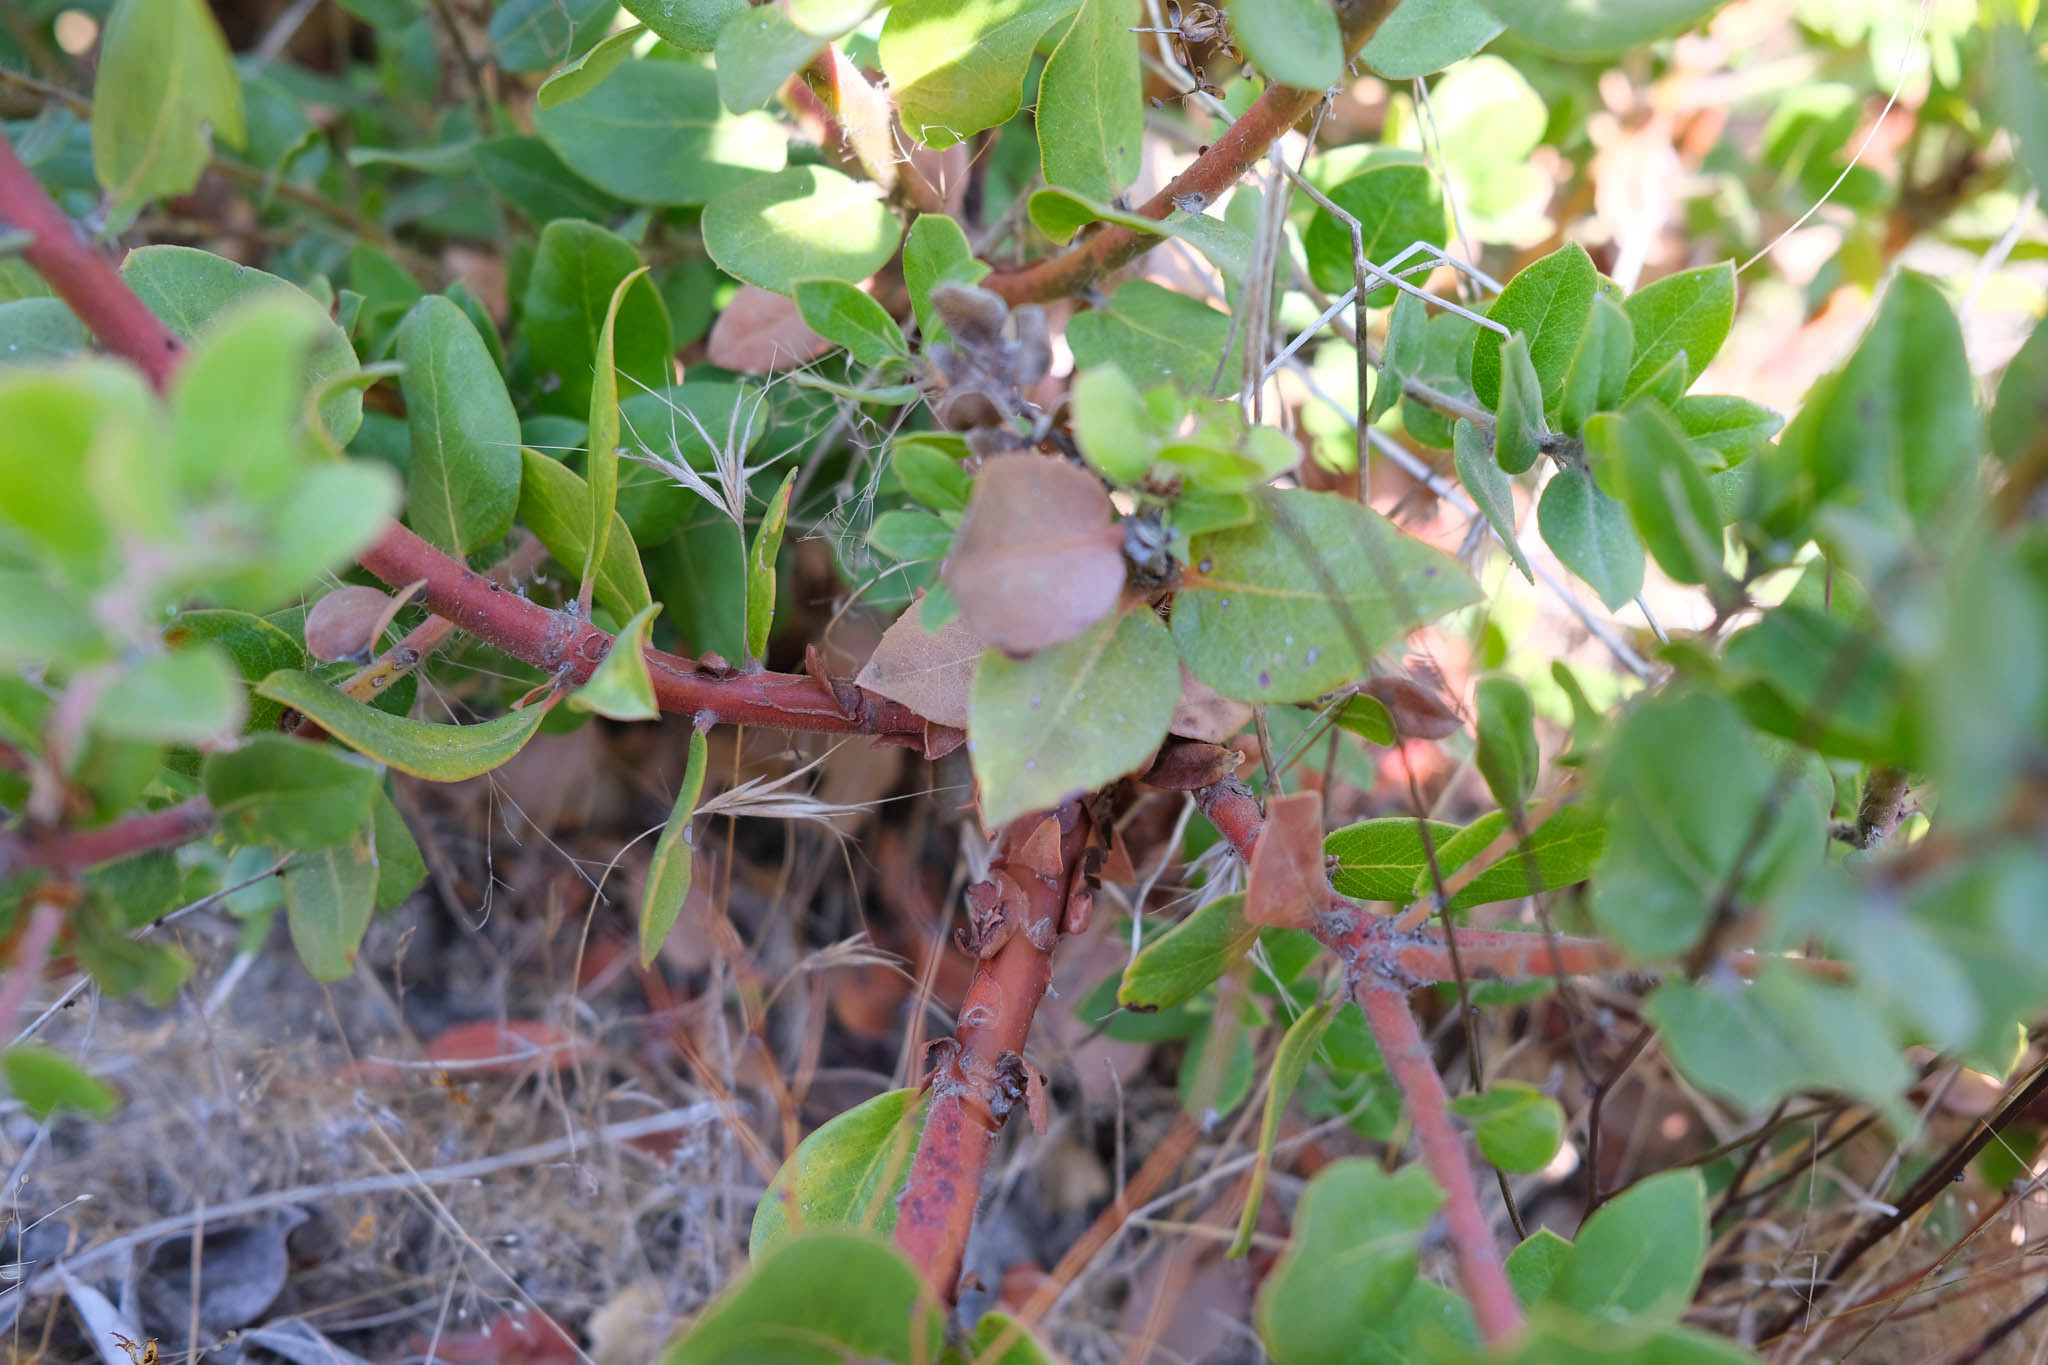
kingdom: Plantae
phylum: Tracheophyta
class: Magnoliopsida
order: Ericales
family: Ericaceae
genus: Arctostaphylos
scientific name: Arctostaphylos crustacea
